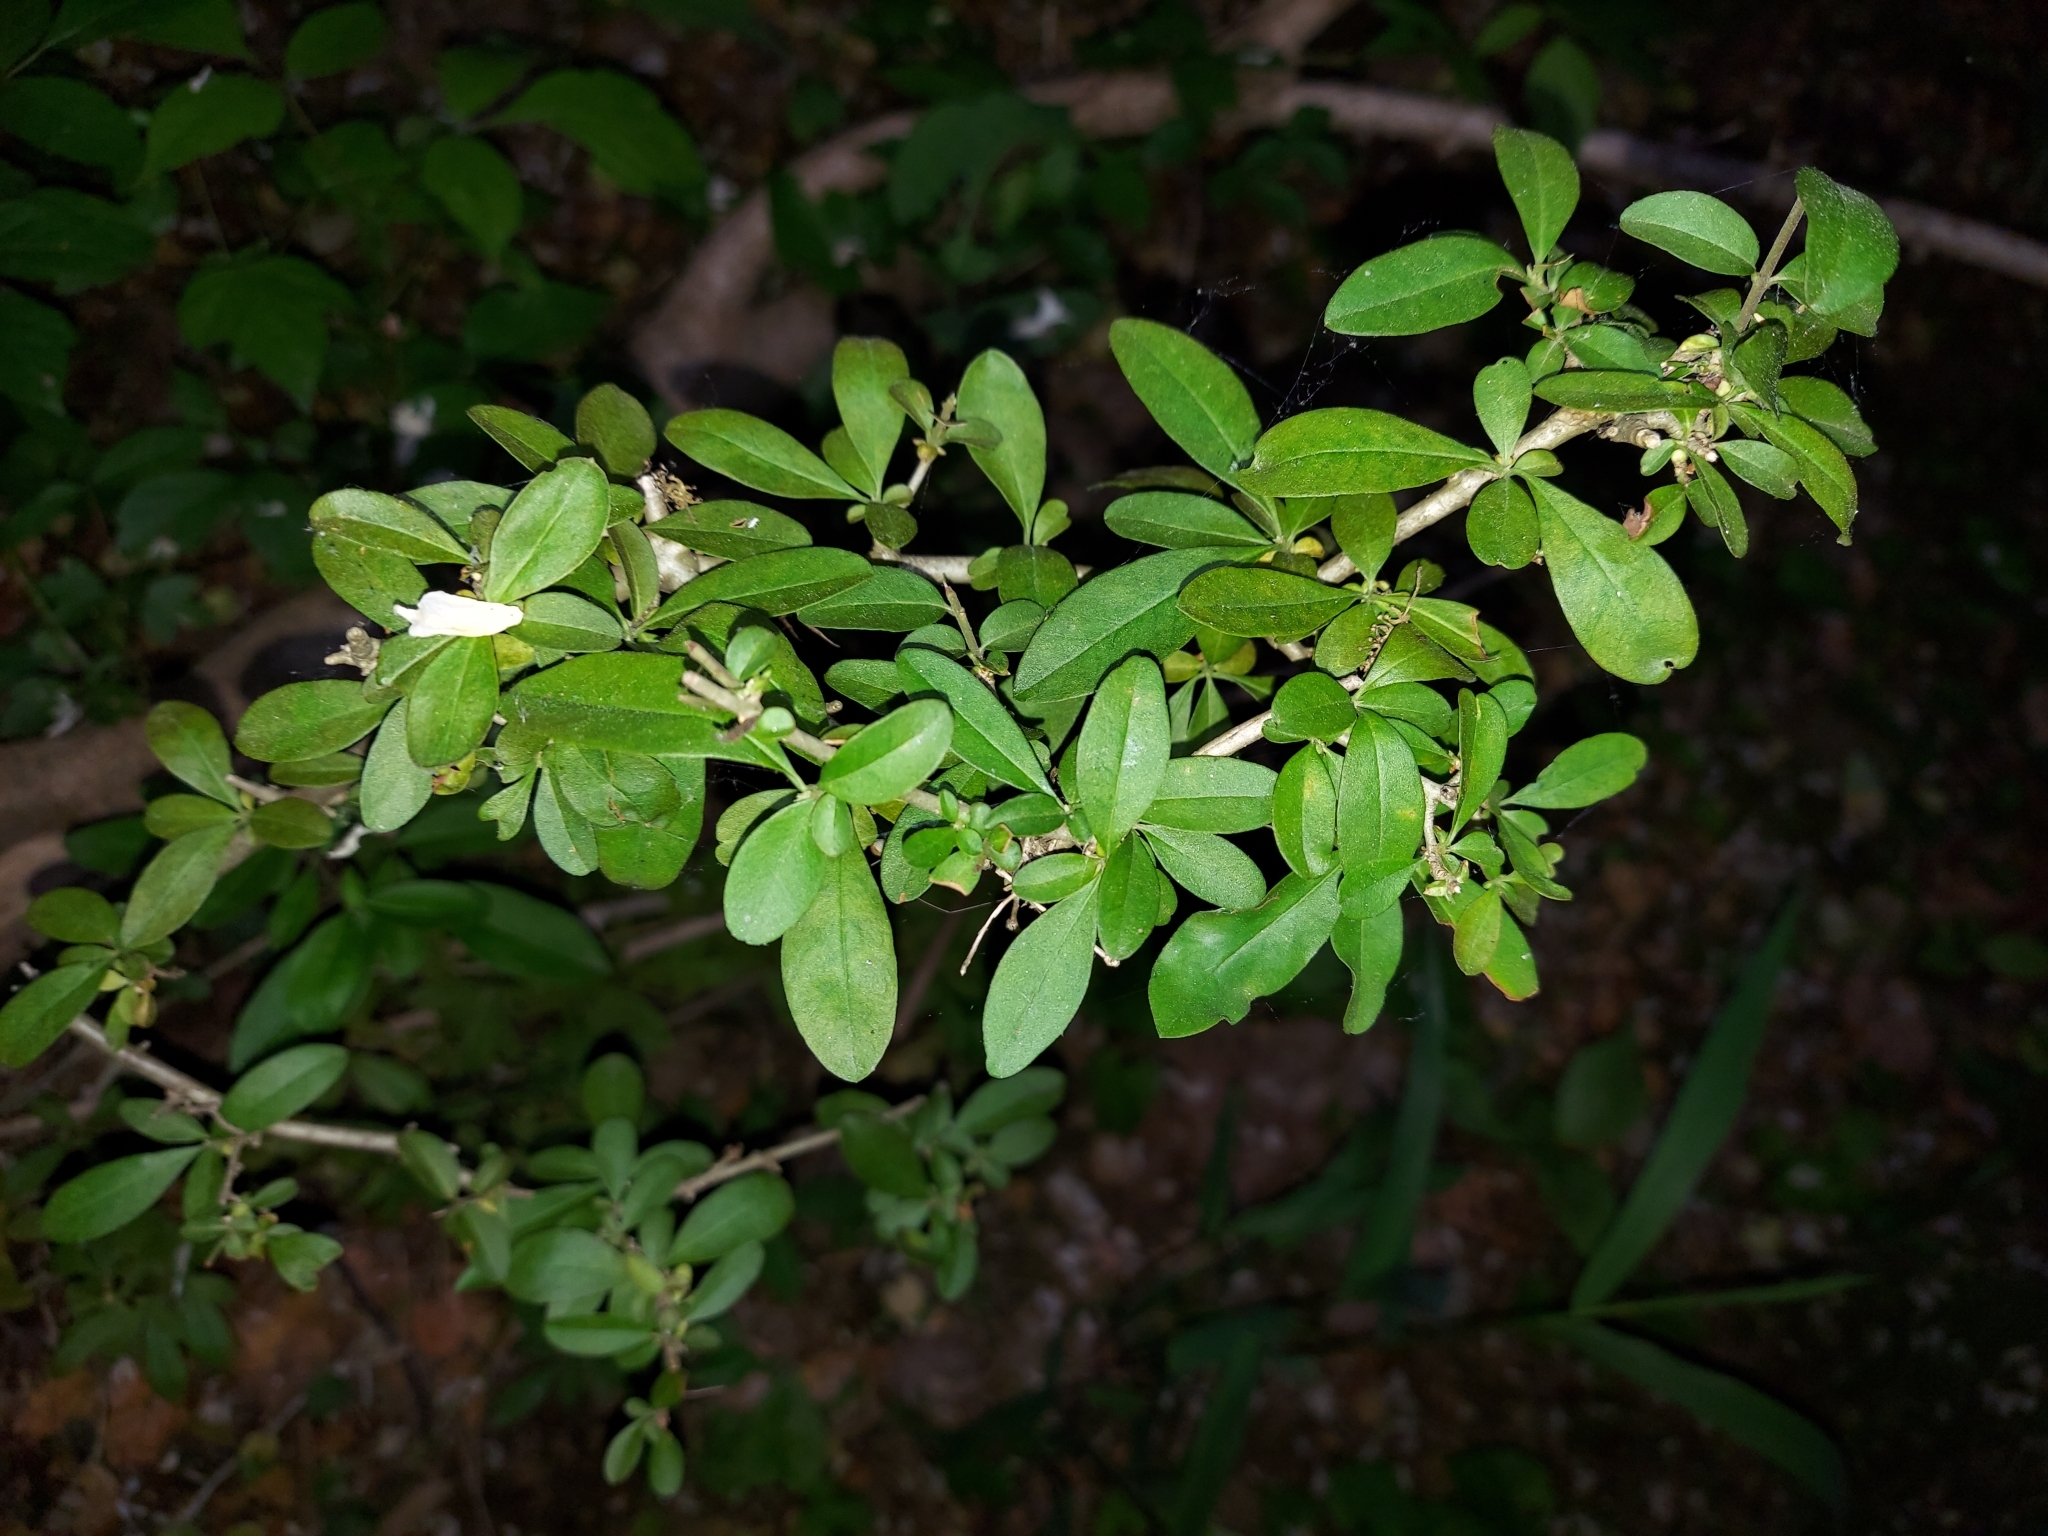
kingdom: Plantae
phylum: Tracheophyta
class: Magnoliopsida
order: Lamiales
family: Oleaceae
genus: Ligustrum
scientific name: Ligustrum obtusifolium
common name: Border privet
